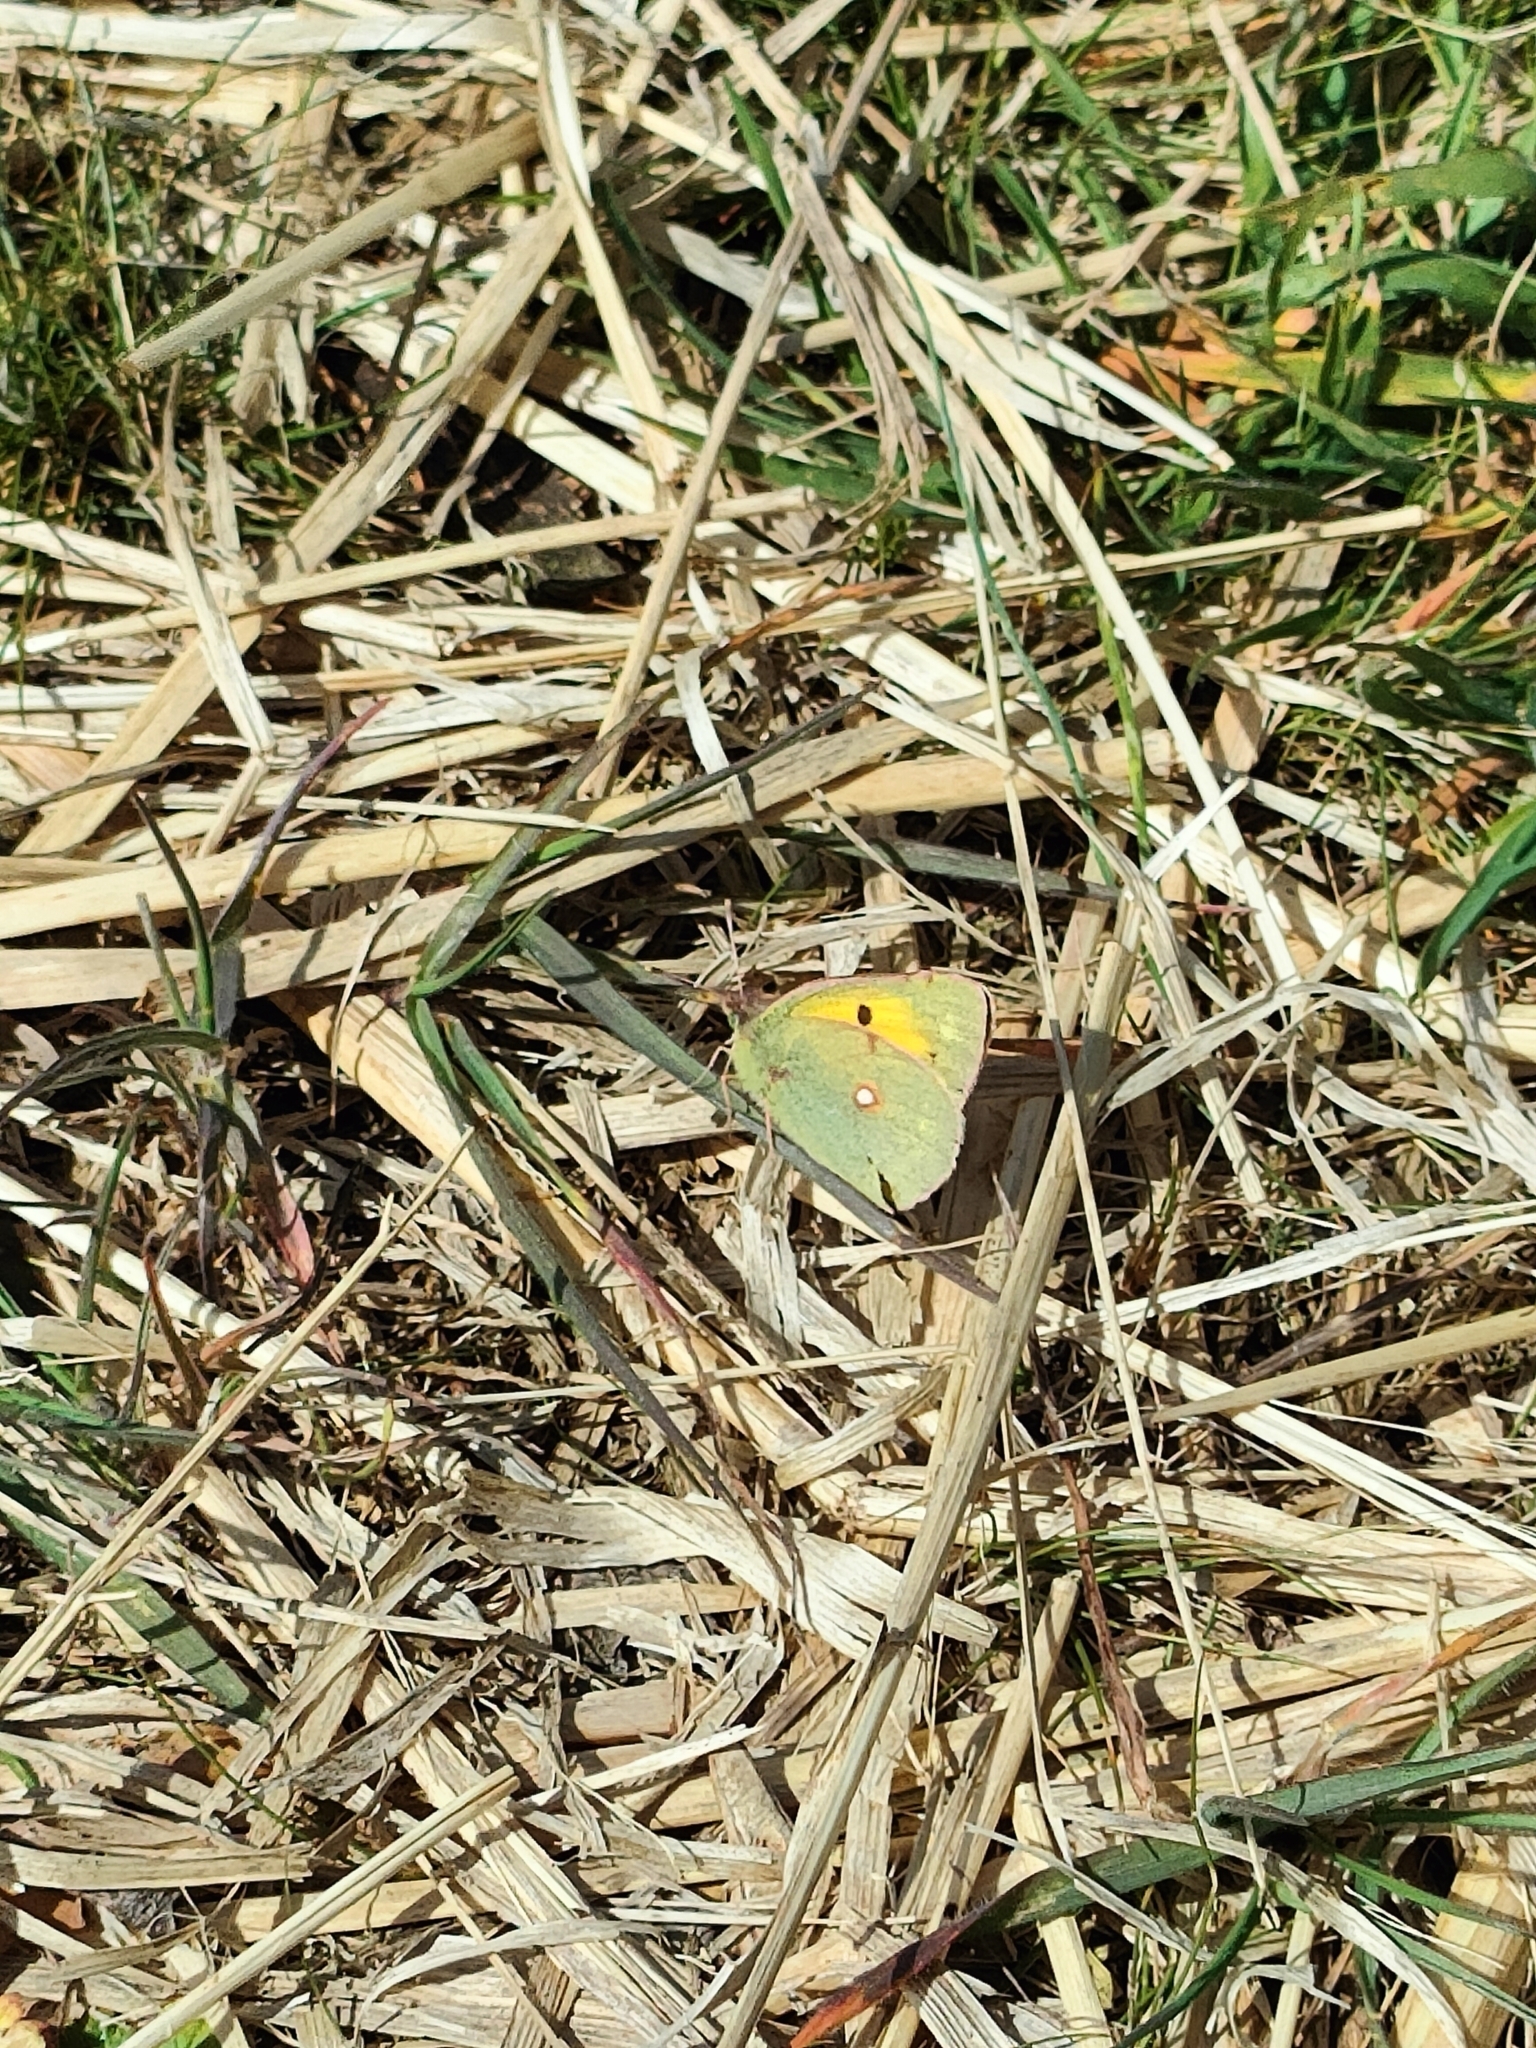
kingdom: Animalia
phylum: Arthropoda
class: Insecta
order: Lepidoptera
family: Pieridae
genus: Colias
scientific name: Colias croceus
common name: Clouded yellow
